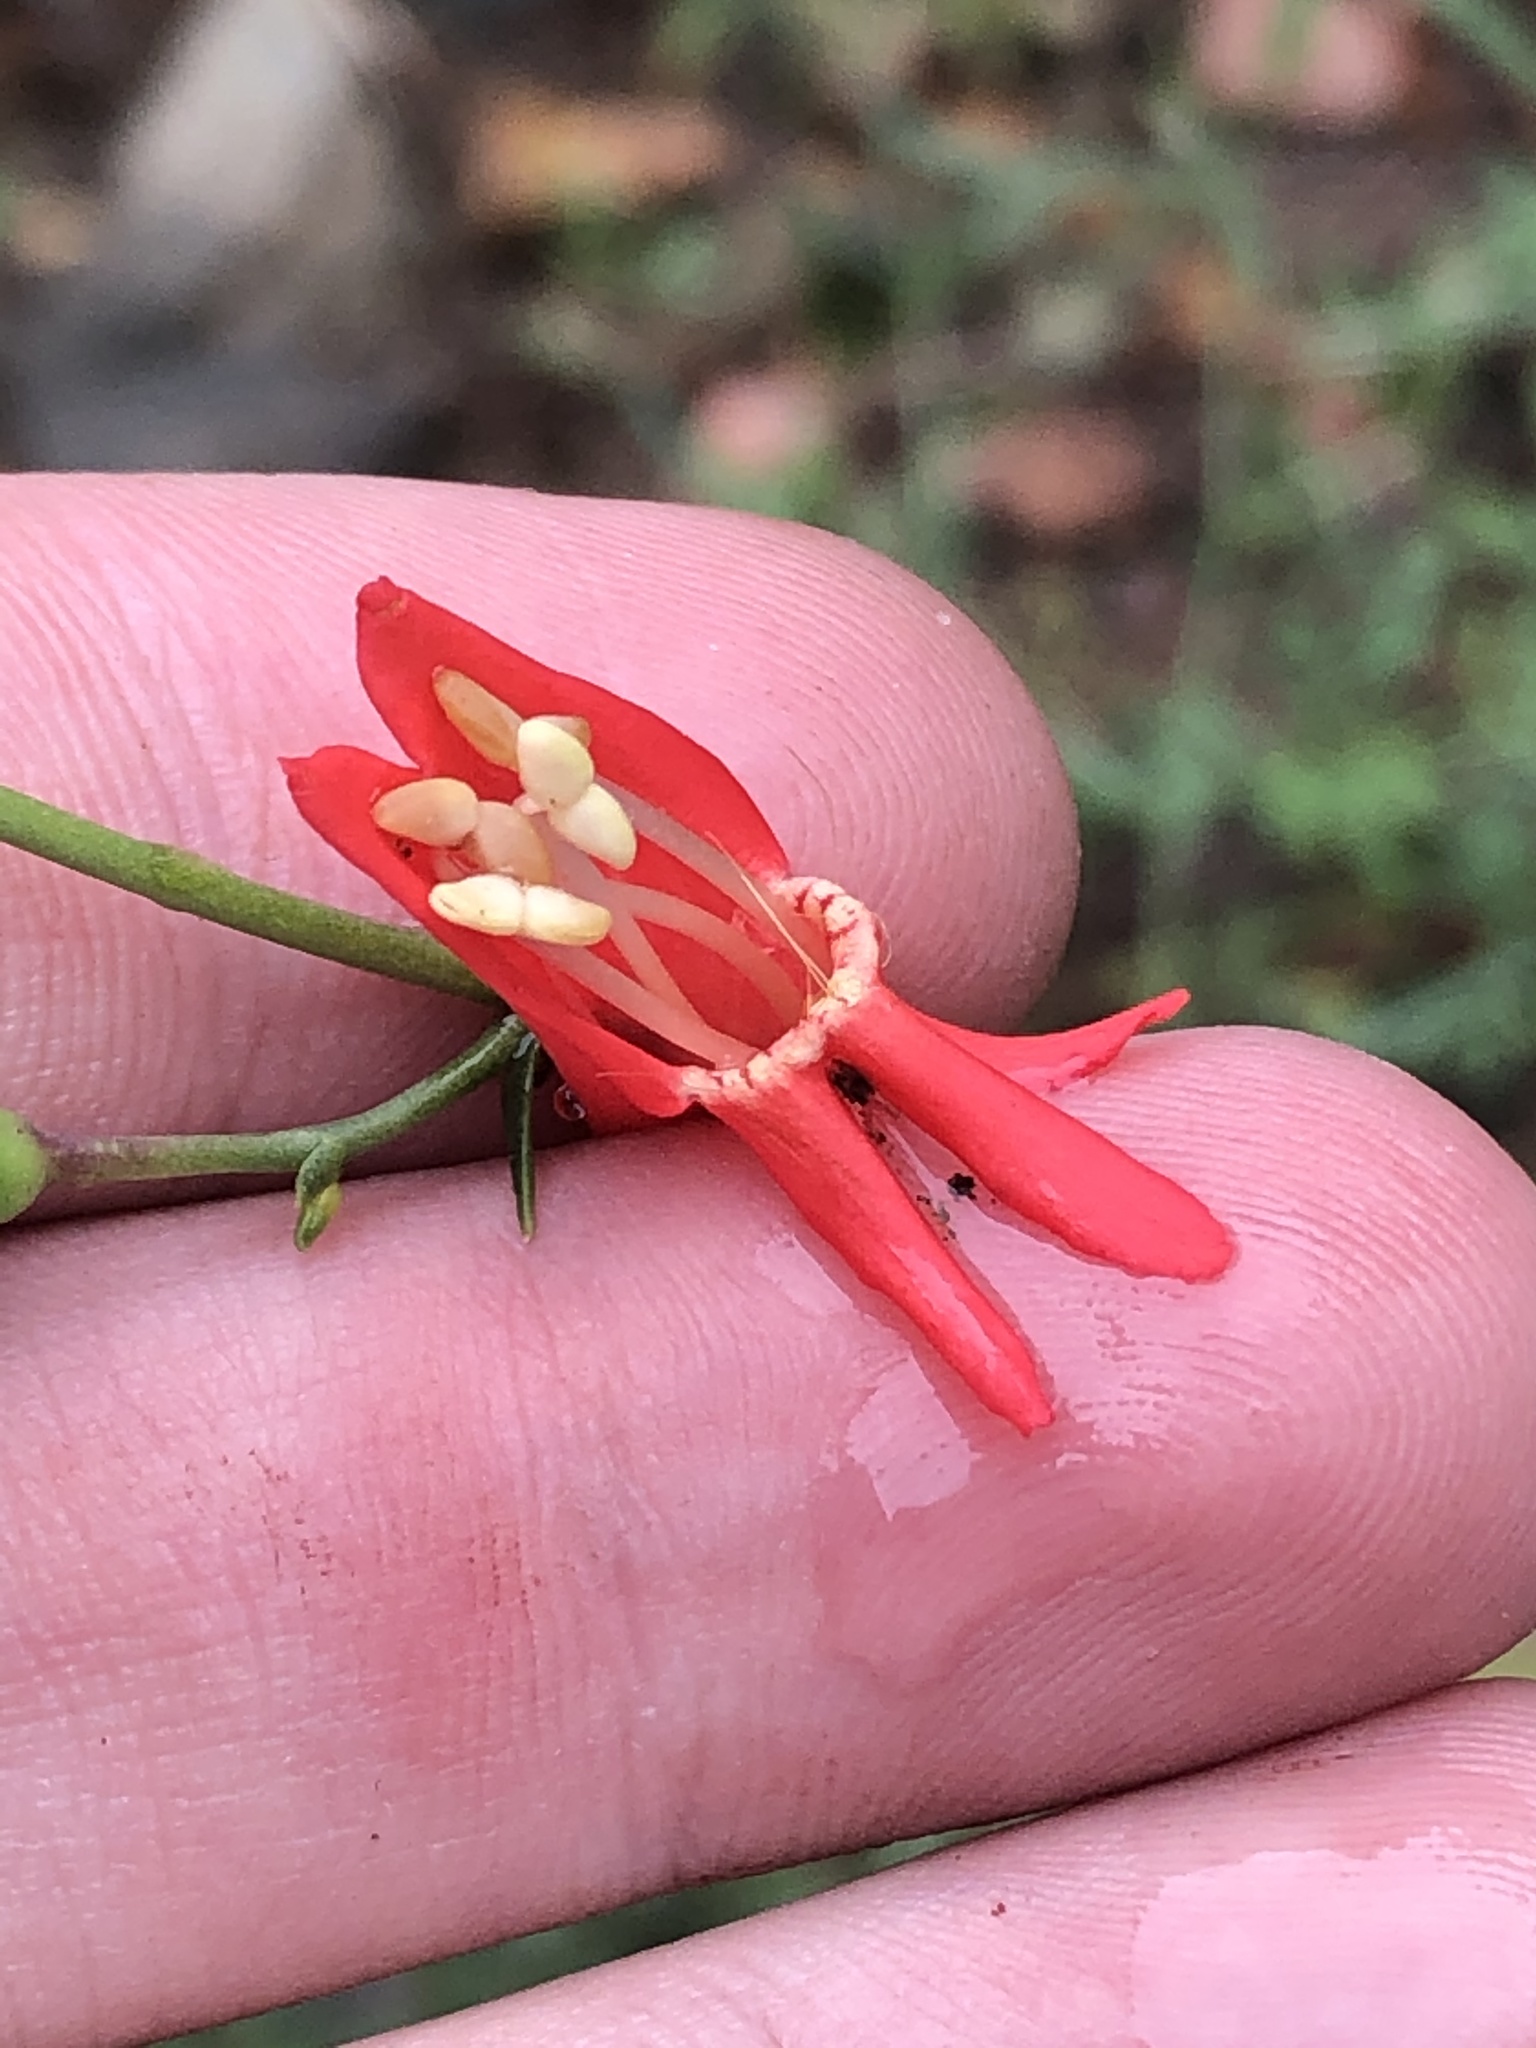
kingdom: Plantae
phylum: Tracheophyta
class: Magnoliopsida
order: Lamiales
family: Plantaginaceae
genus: Penstemon
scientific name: Penstemon barbatus
